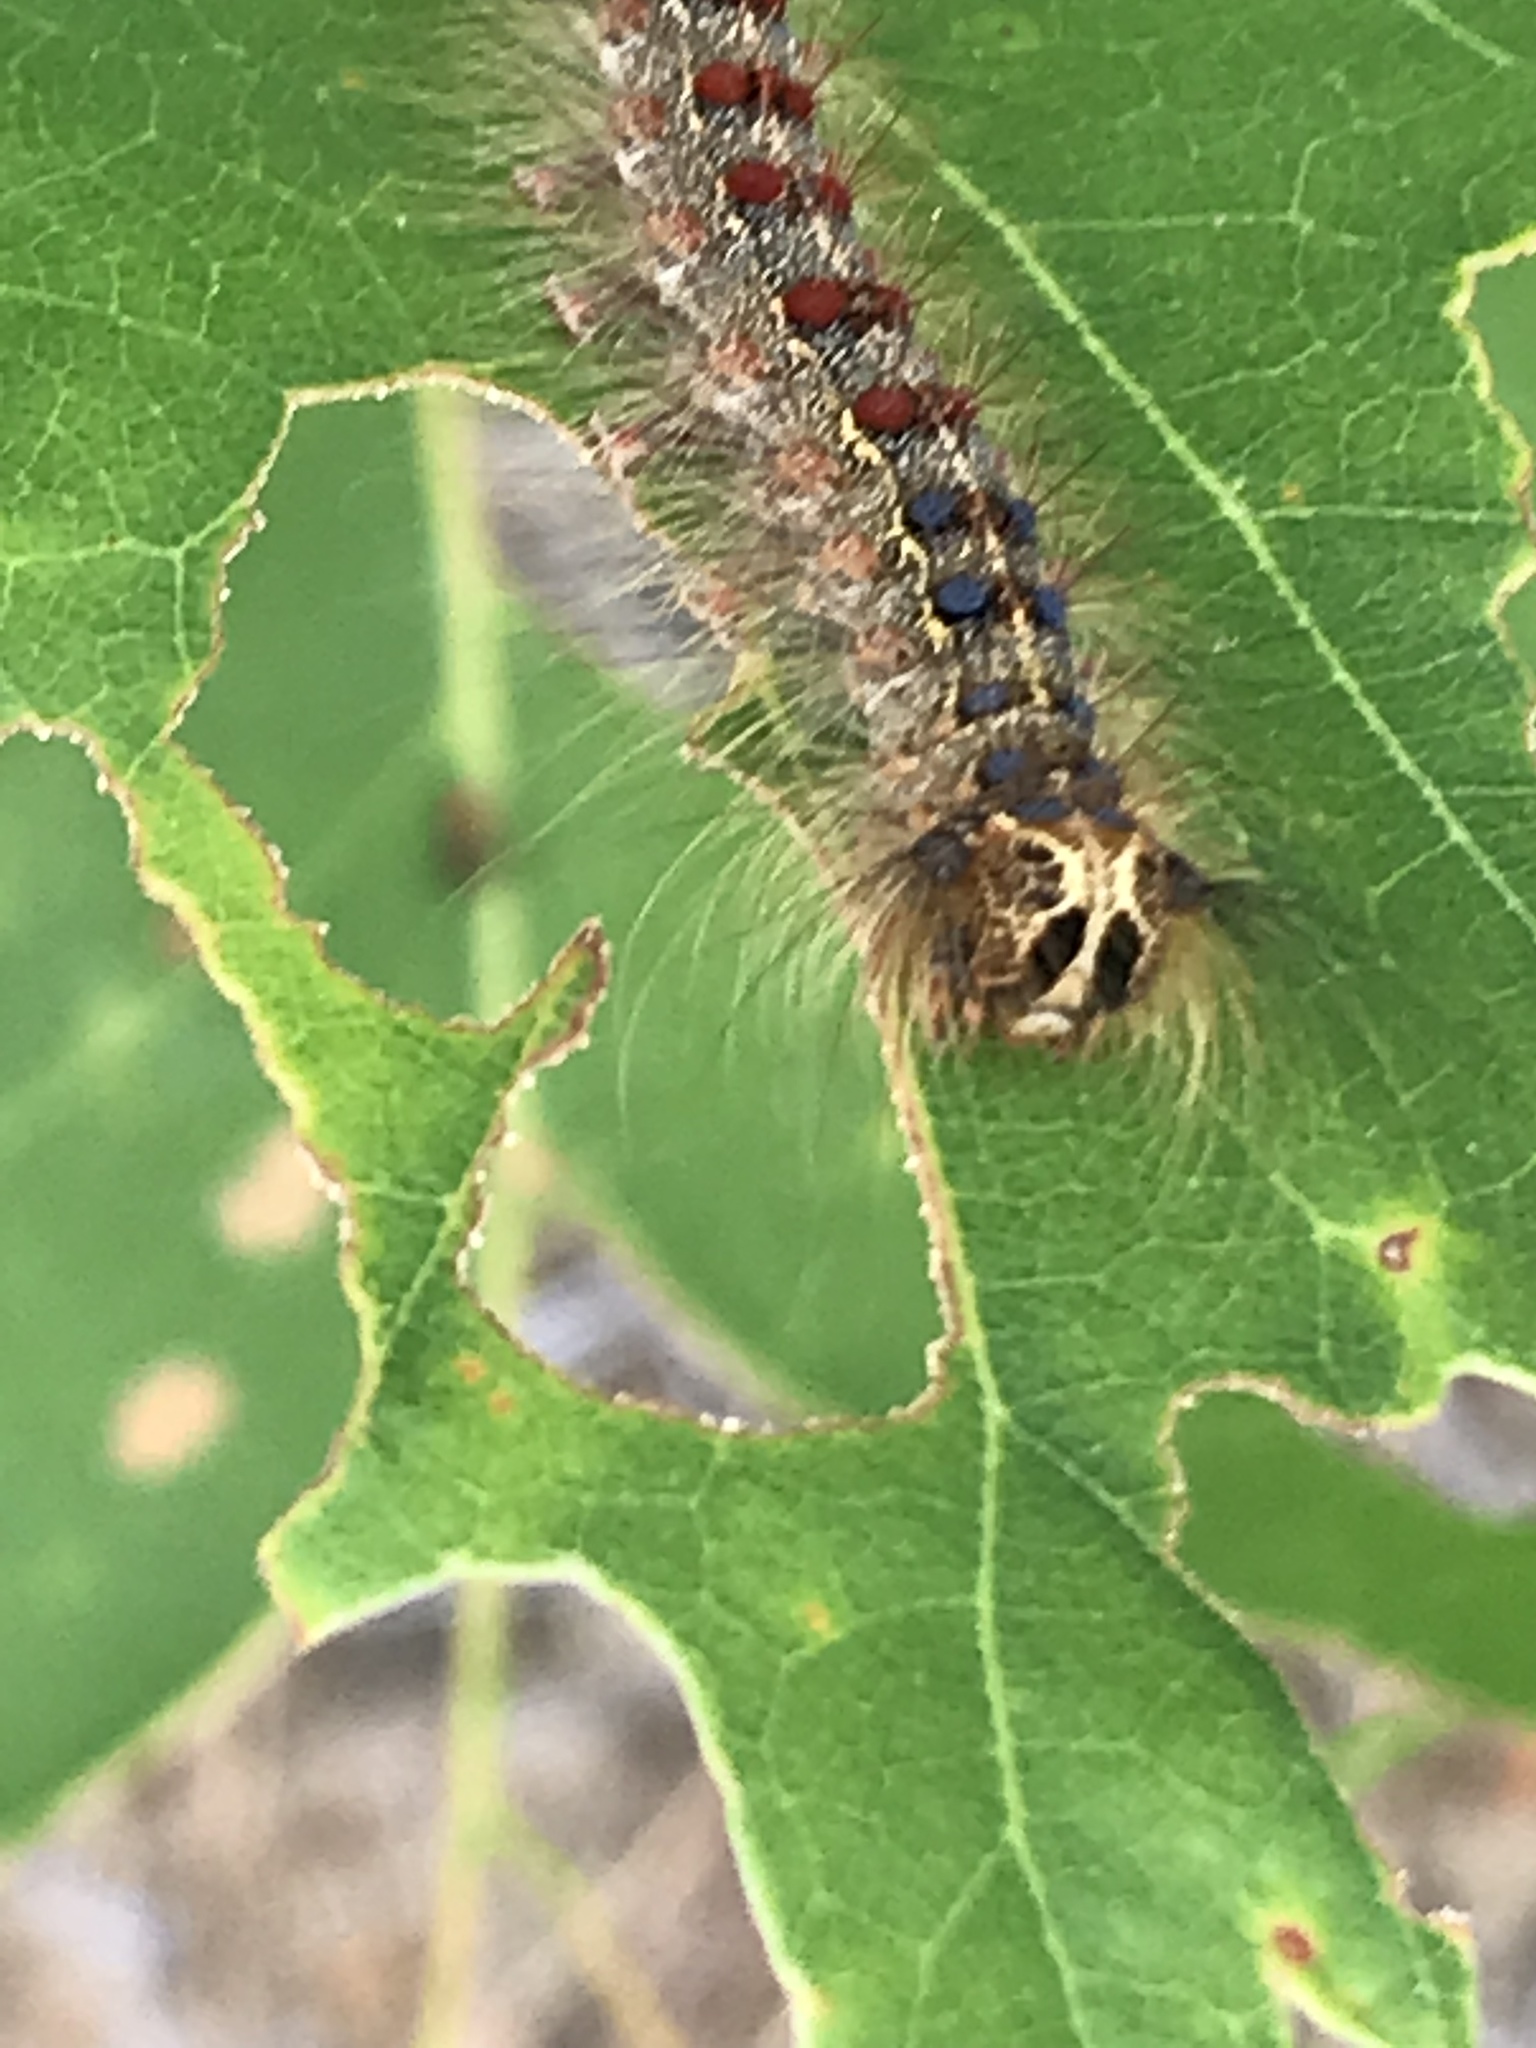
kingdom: Animalia
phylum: Arthropoda
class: Insecta
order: Lepidoptera
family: Erebidae
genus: Lymantria
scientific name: Lymantria dispar
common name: Gypsy moth
